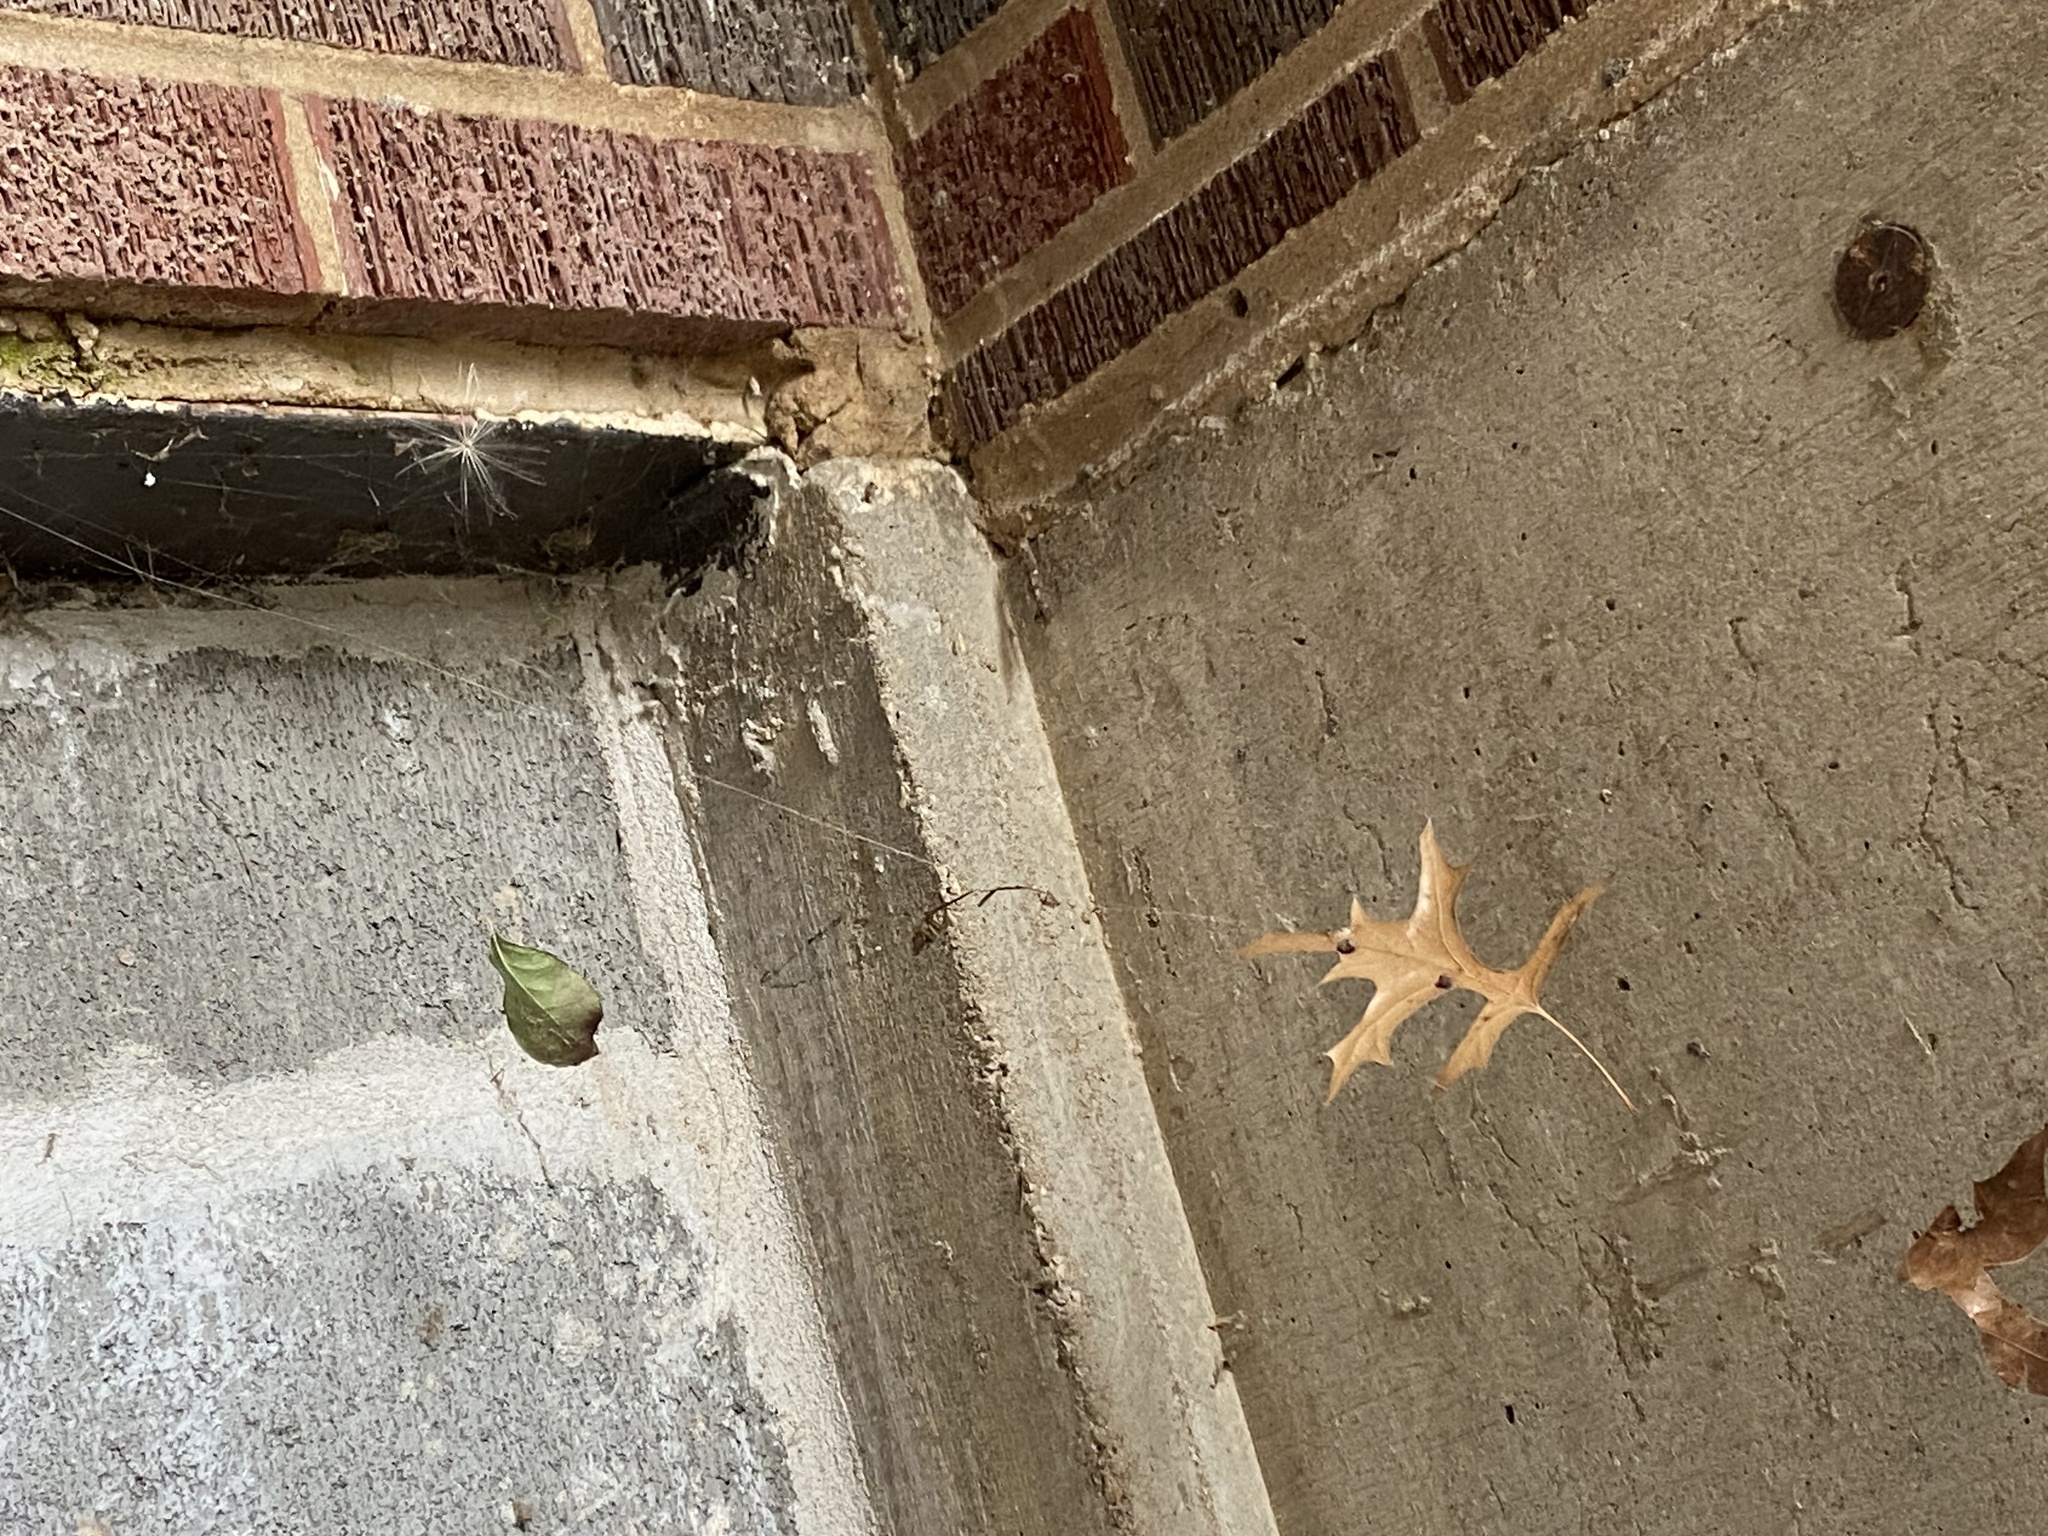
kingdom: Animalia
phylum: Arthropoda
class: Insecta
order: Diptera
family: Cecidomyiidae
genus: Polystepha
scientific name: Polystepha pilulae
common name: Oak leaf gall midge
